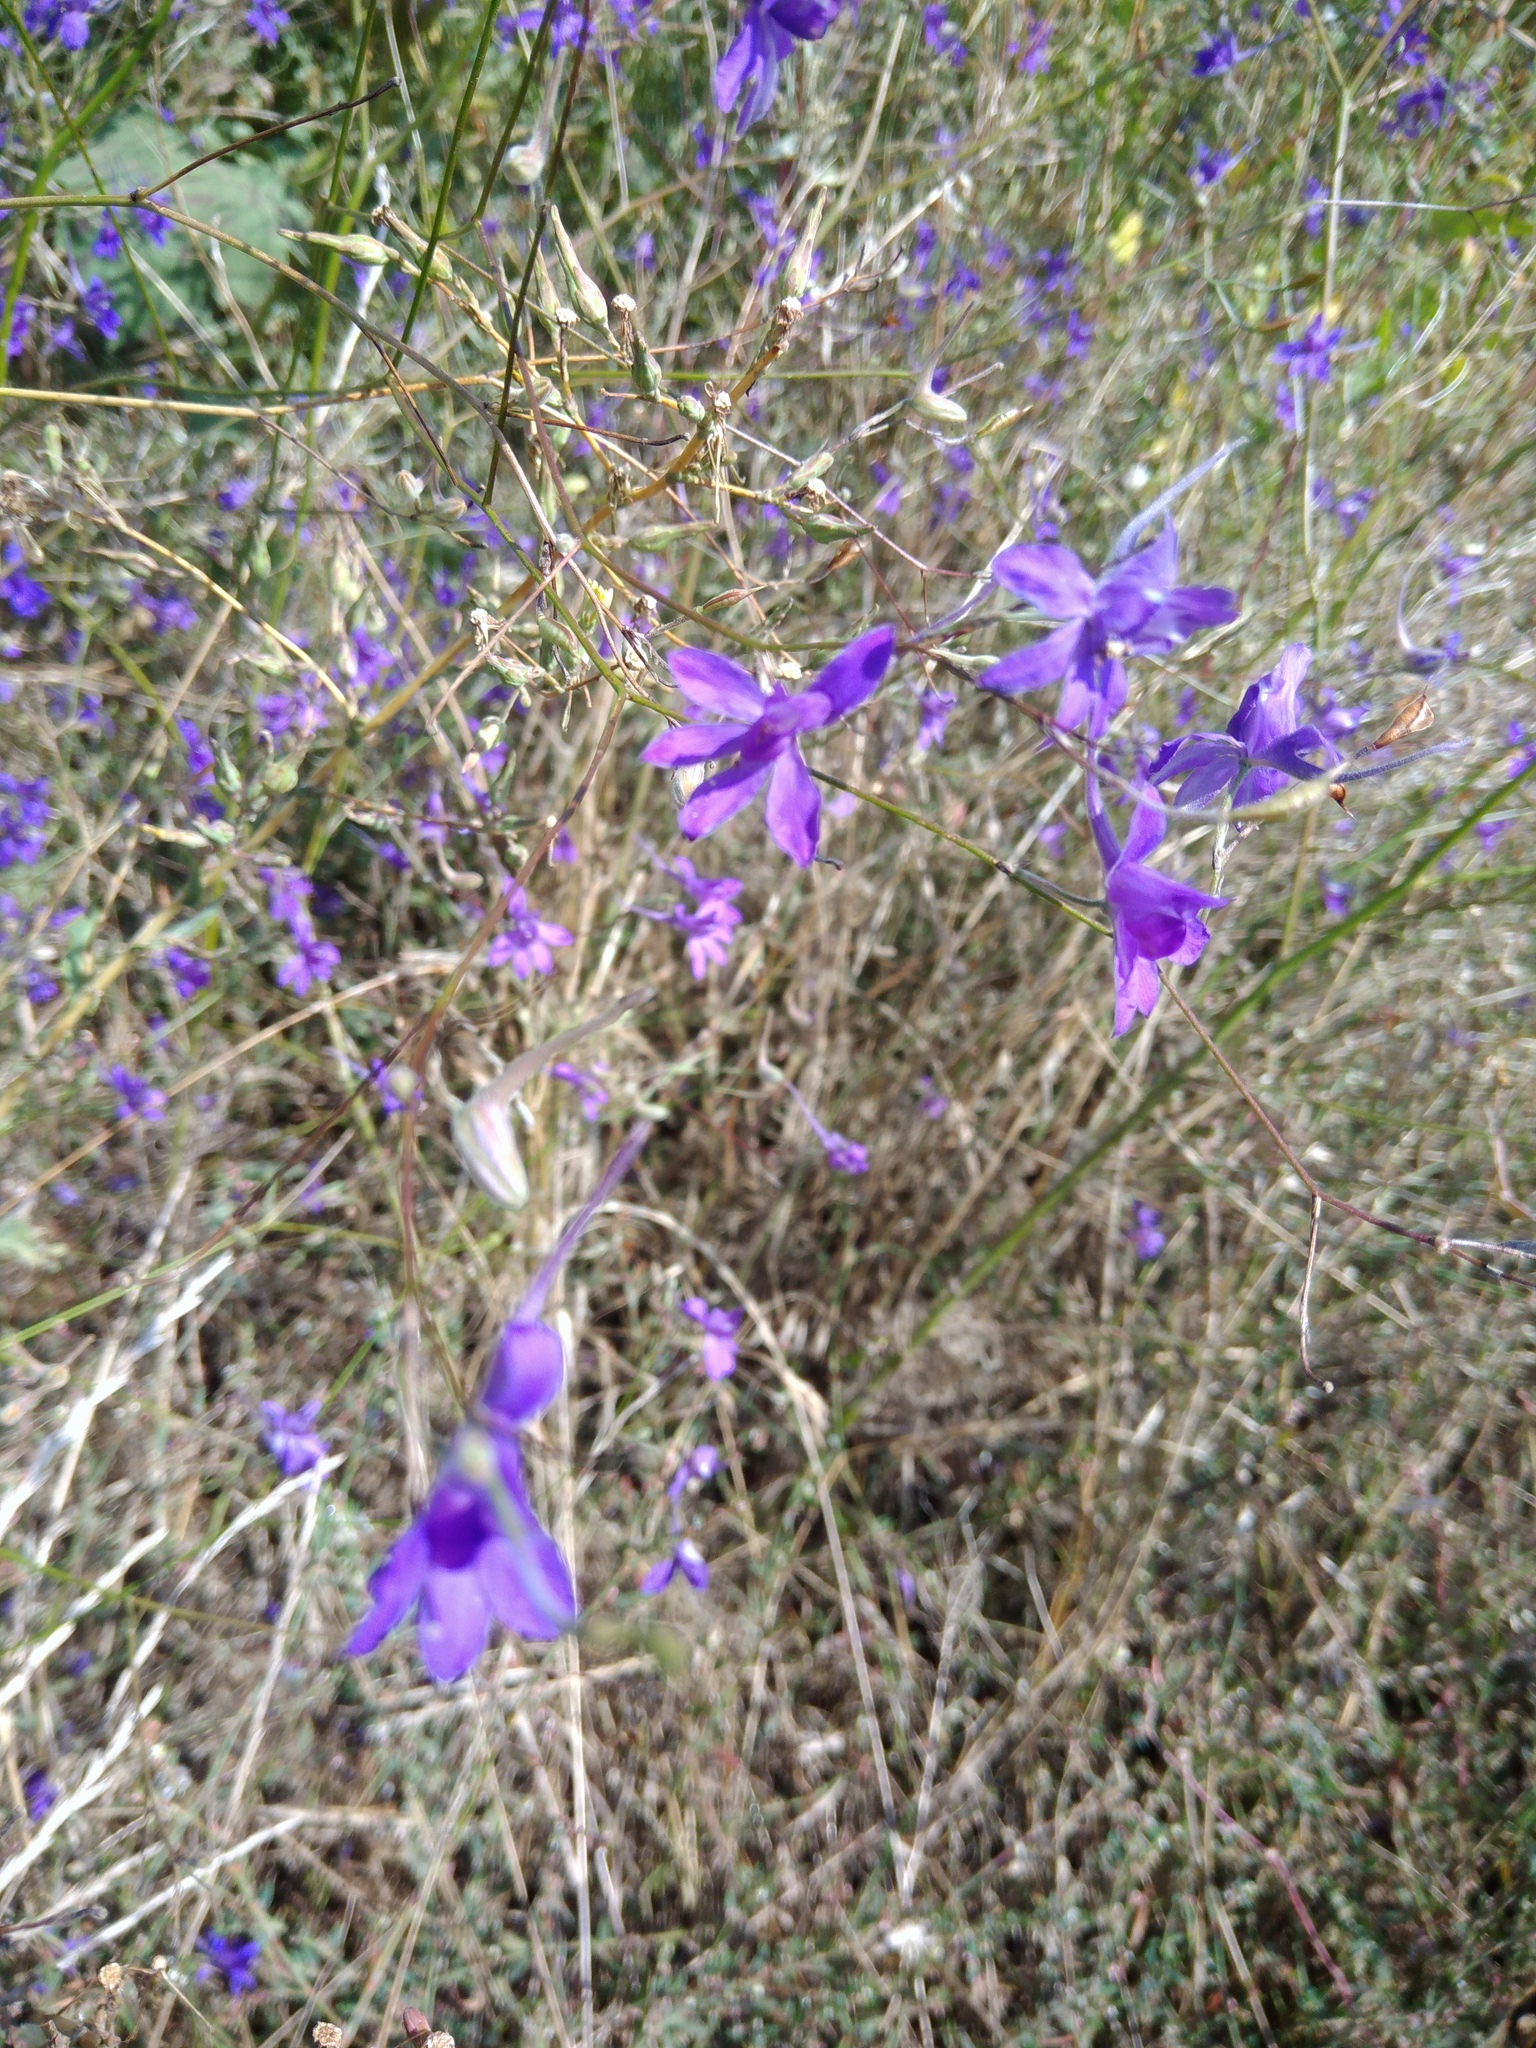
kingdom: Plantae
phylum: Tracheophyta
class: Magnoliopsida
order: Ranunculales
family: Ranunculaceae
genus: Delphinium
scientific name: Delphinium consolida
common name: Branching larkspur
